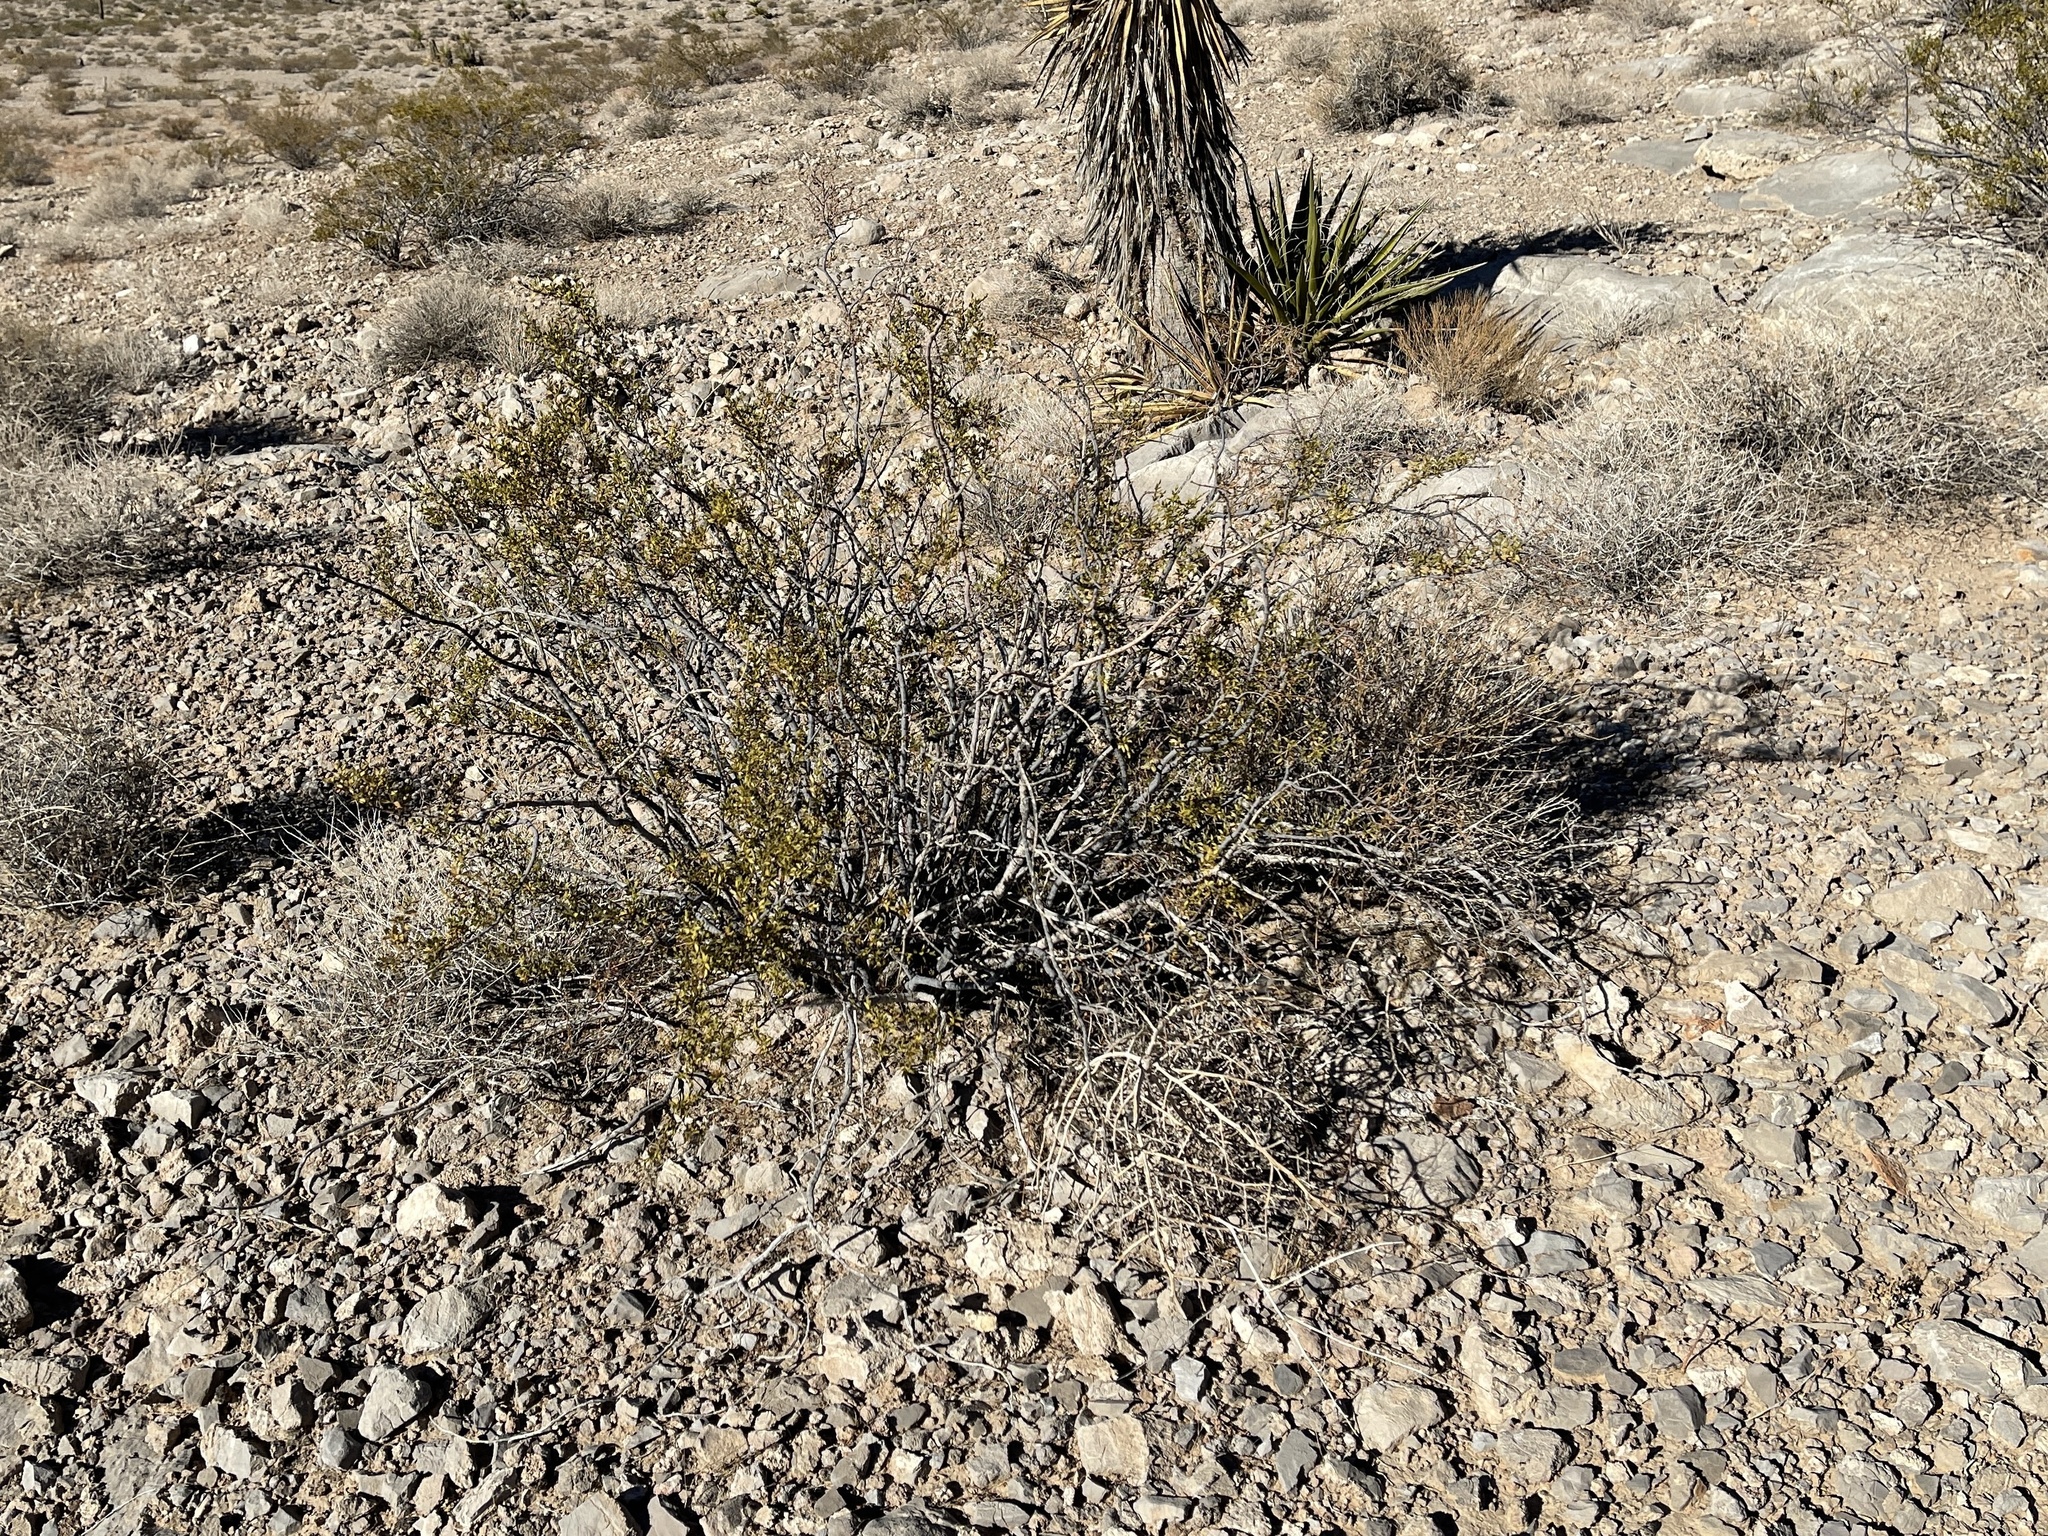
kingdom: Plantae
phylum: Tracheophyta
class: Magnoliopsida
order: Zygophyllales
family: Zygophyllaceae
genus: Larrea
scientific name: Larrea tridentata
